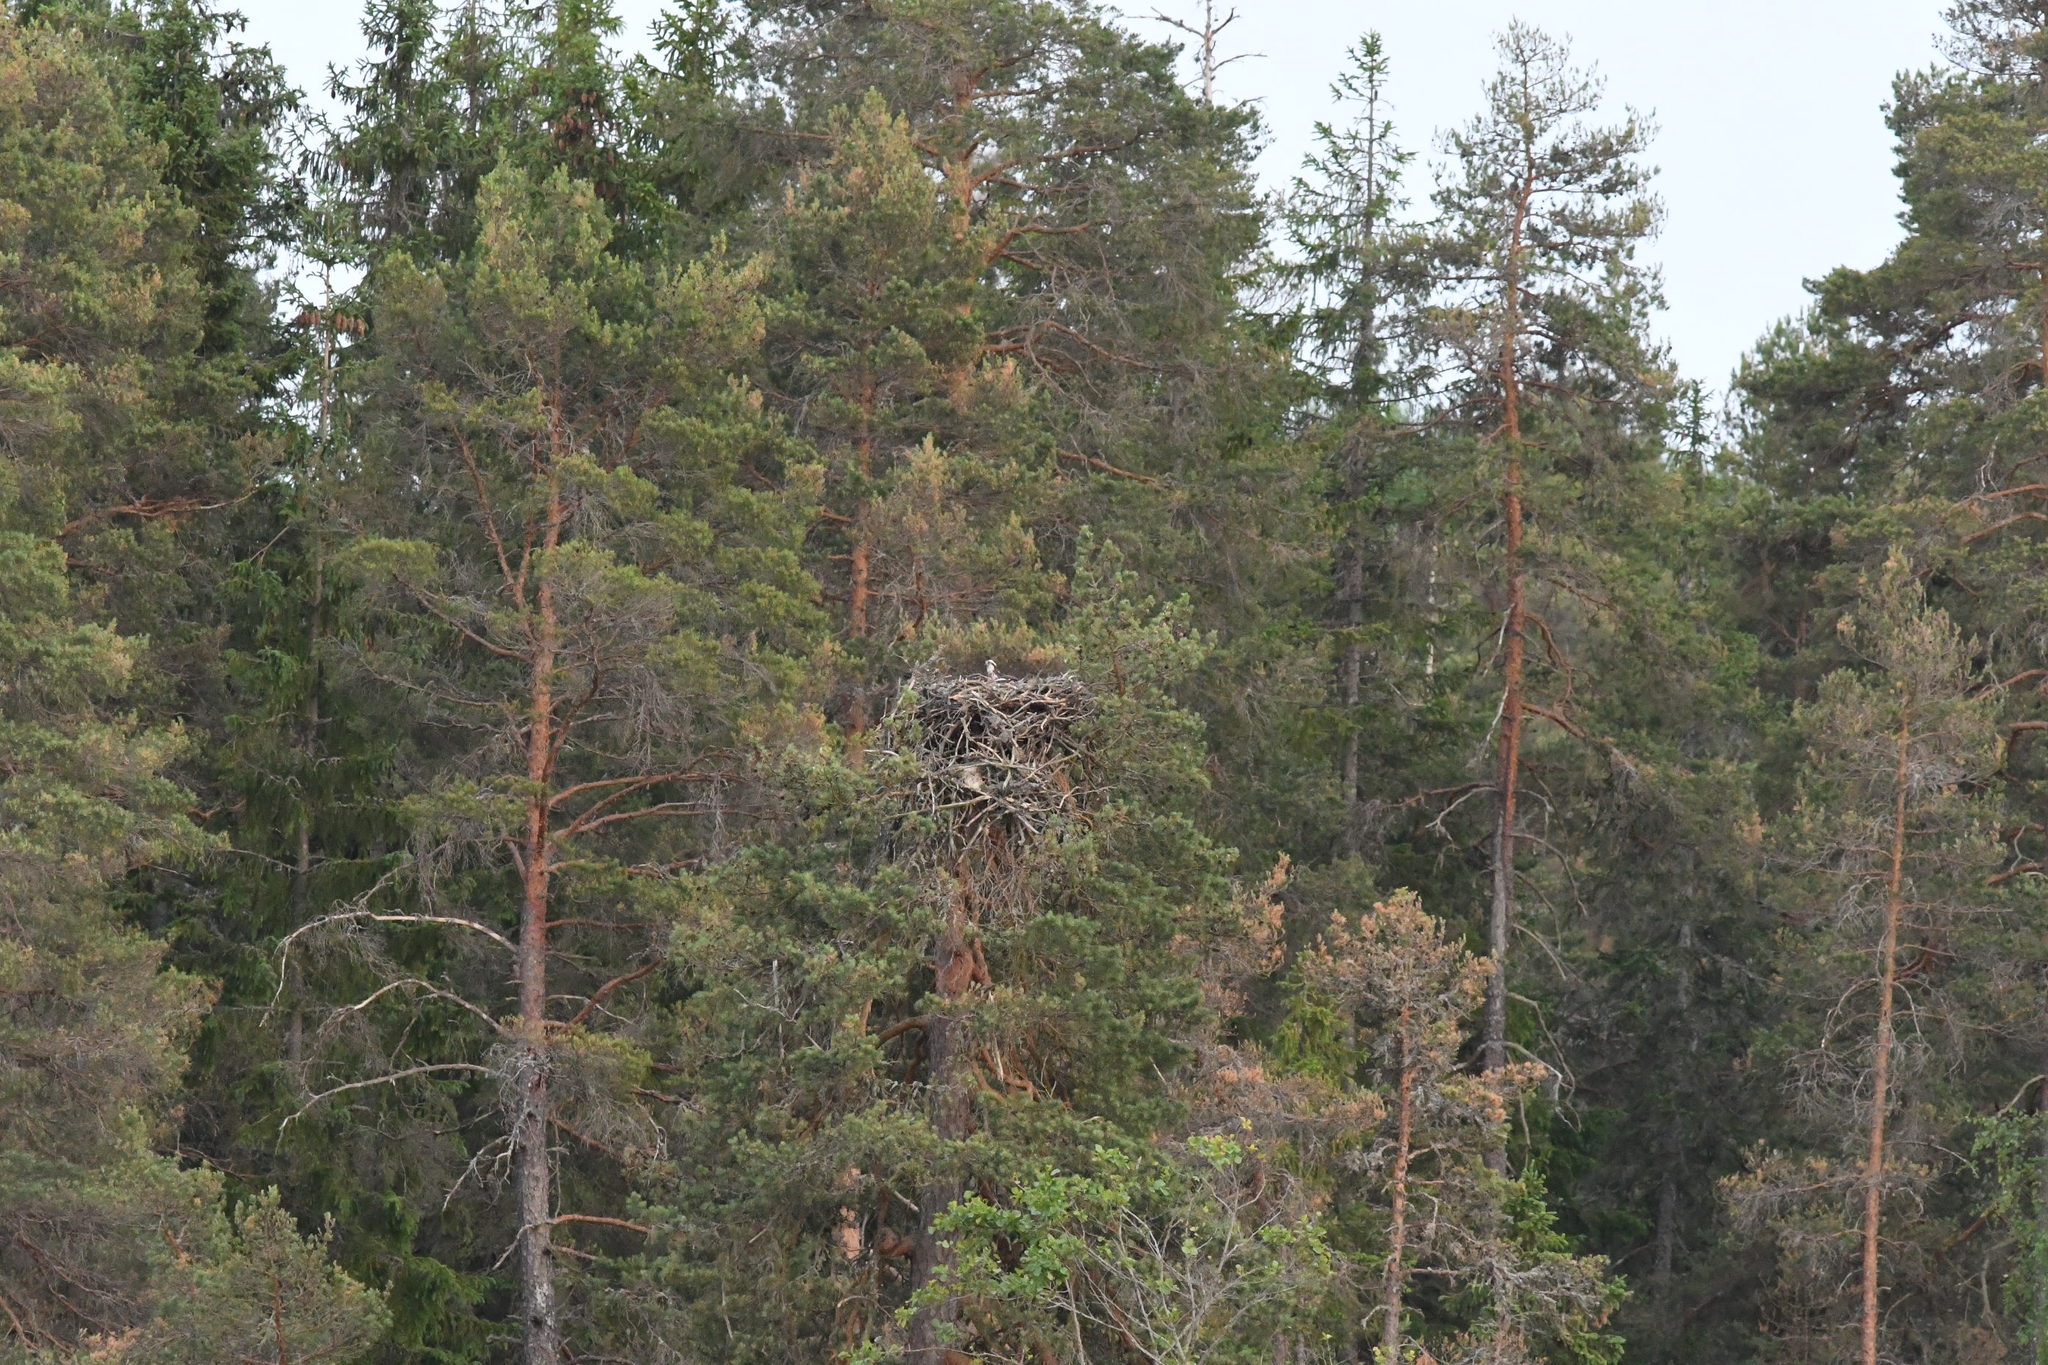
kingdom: Animalia
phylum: Chordata
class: Aves
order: Accipitriformes
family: Pandionidae
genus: Pandion
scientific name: Pandion haliaetus
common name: Osprey
